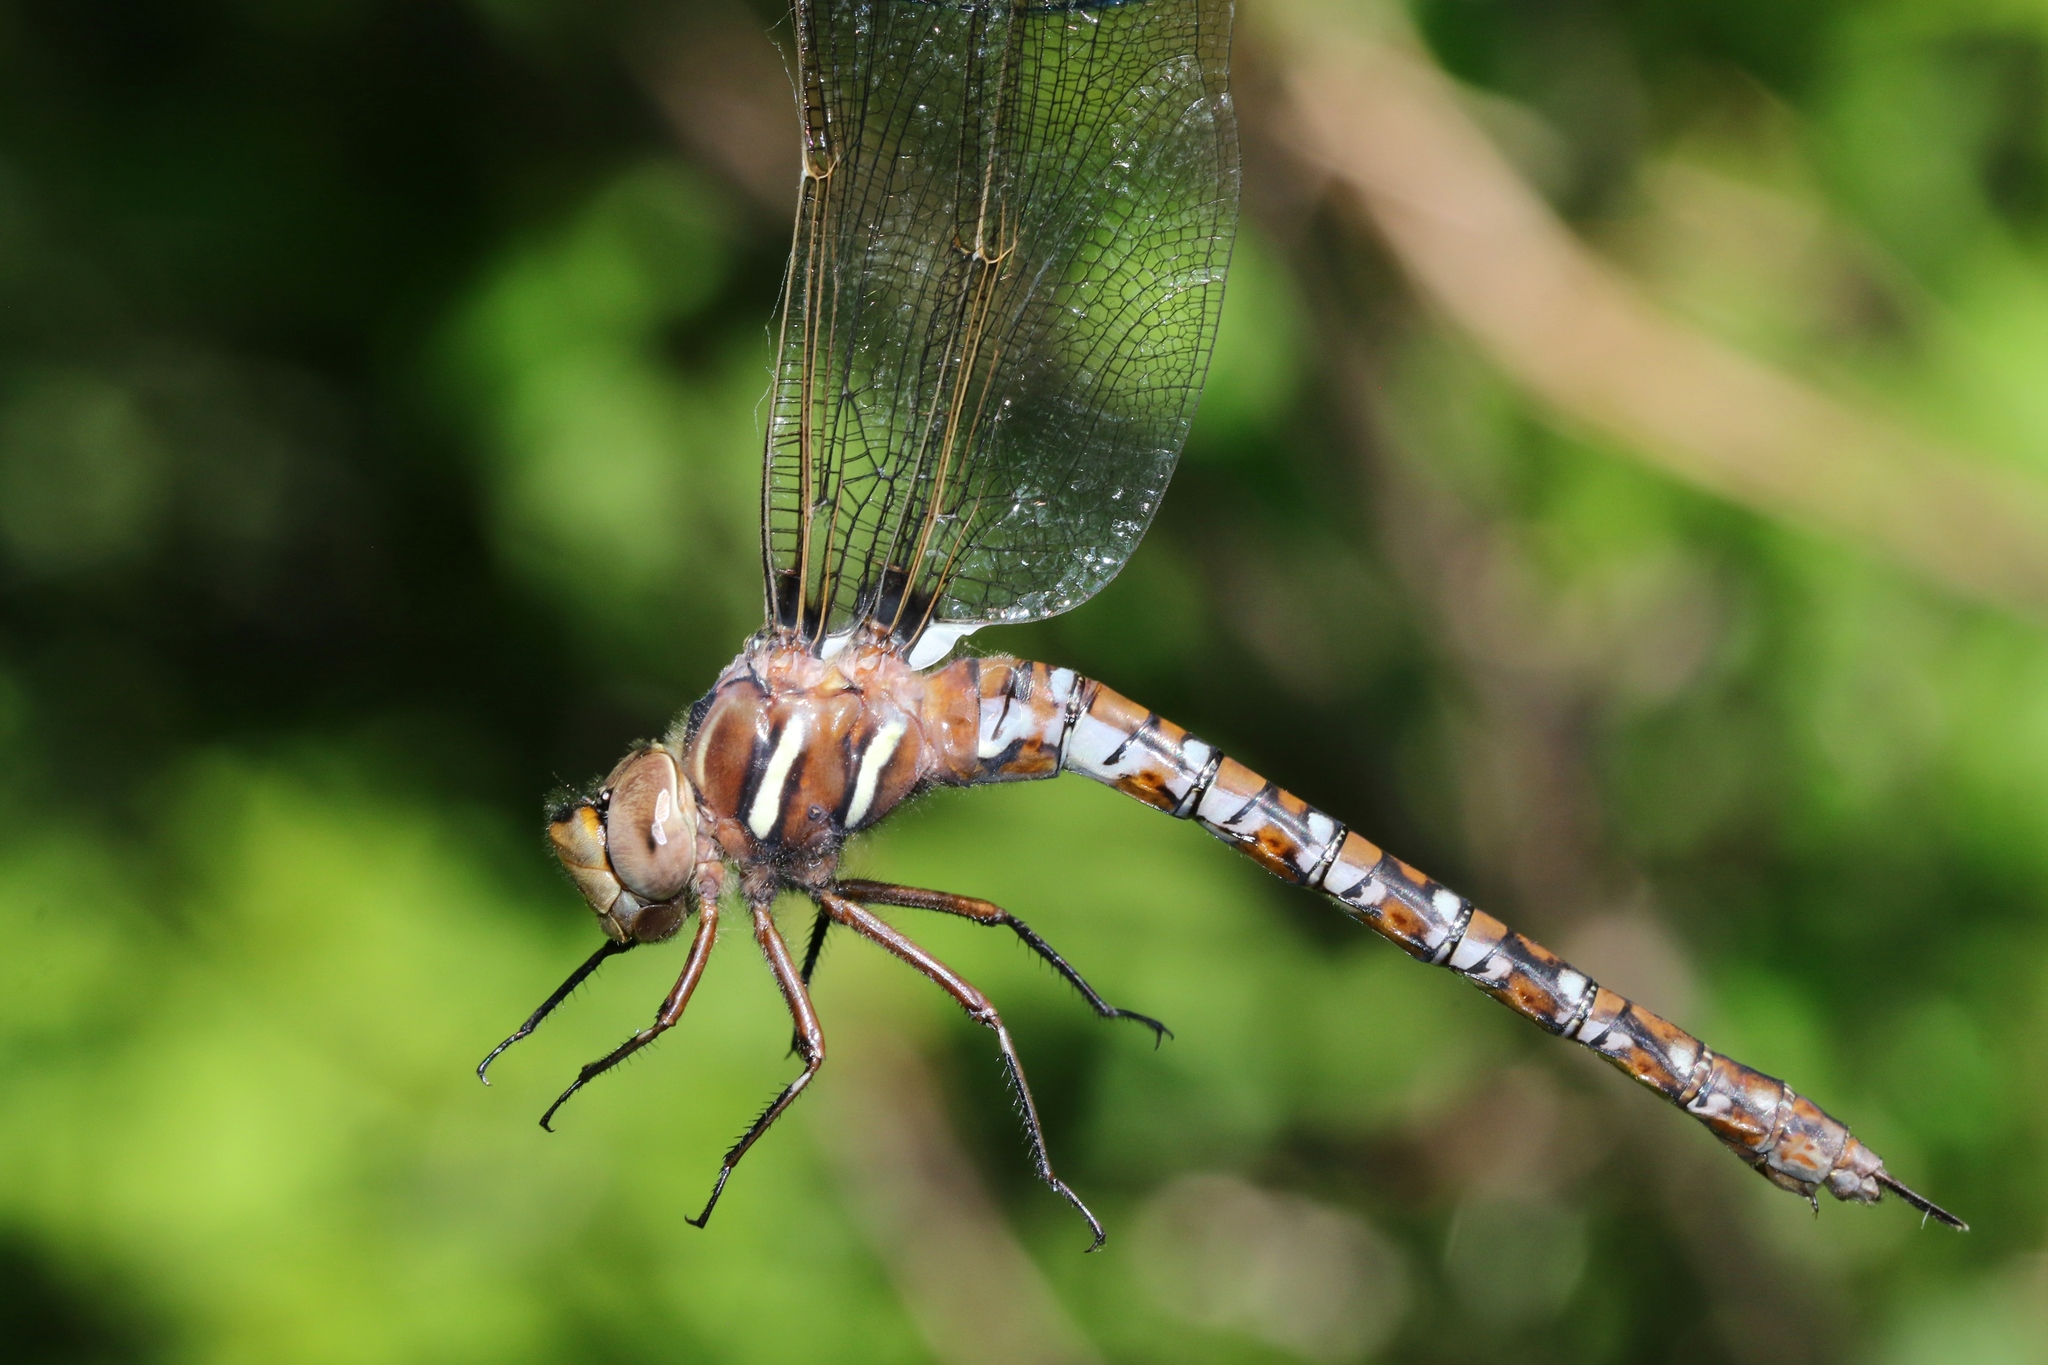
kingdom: Animalia
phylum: Arthropoda
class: Insecta
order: Odonata
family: Aeshnidae
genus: Basiaeschna
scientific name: Basiaeschna janata
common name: Springtime darner
